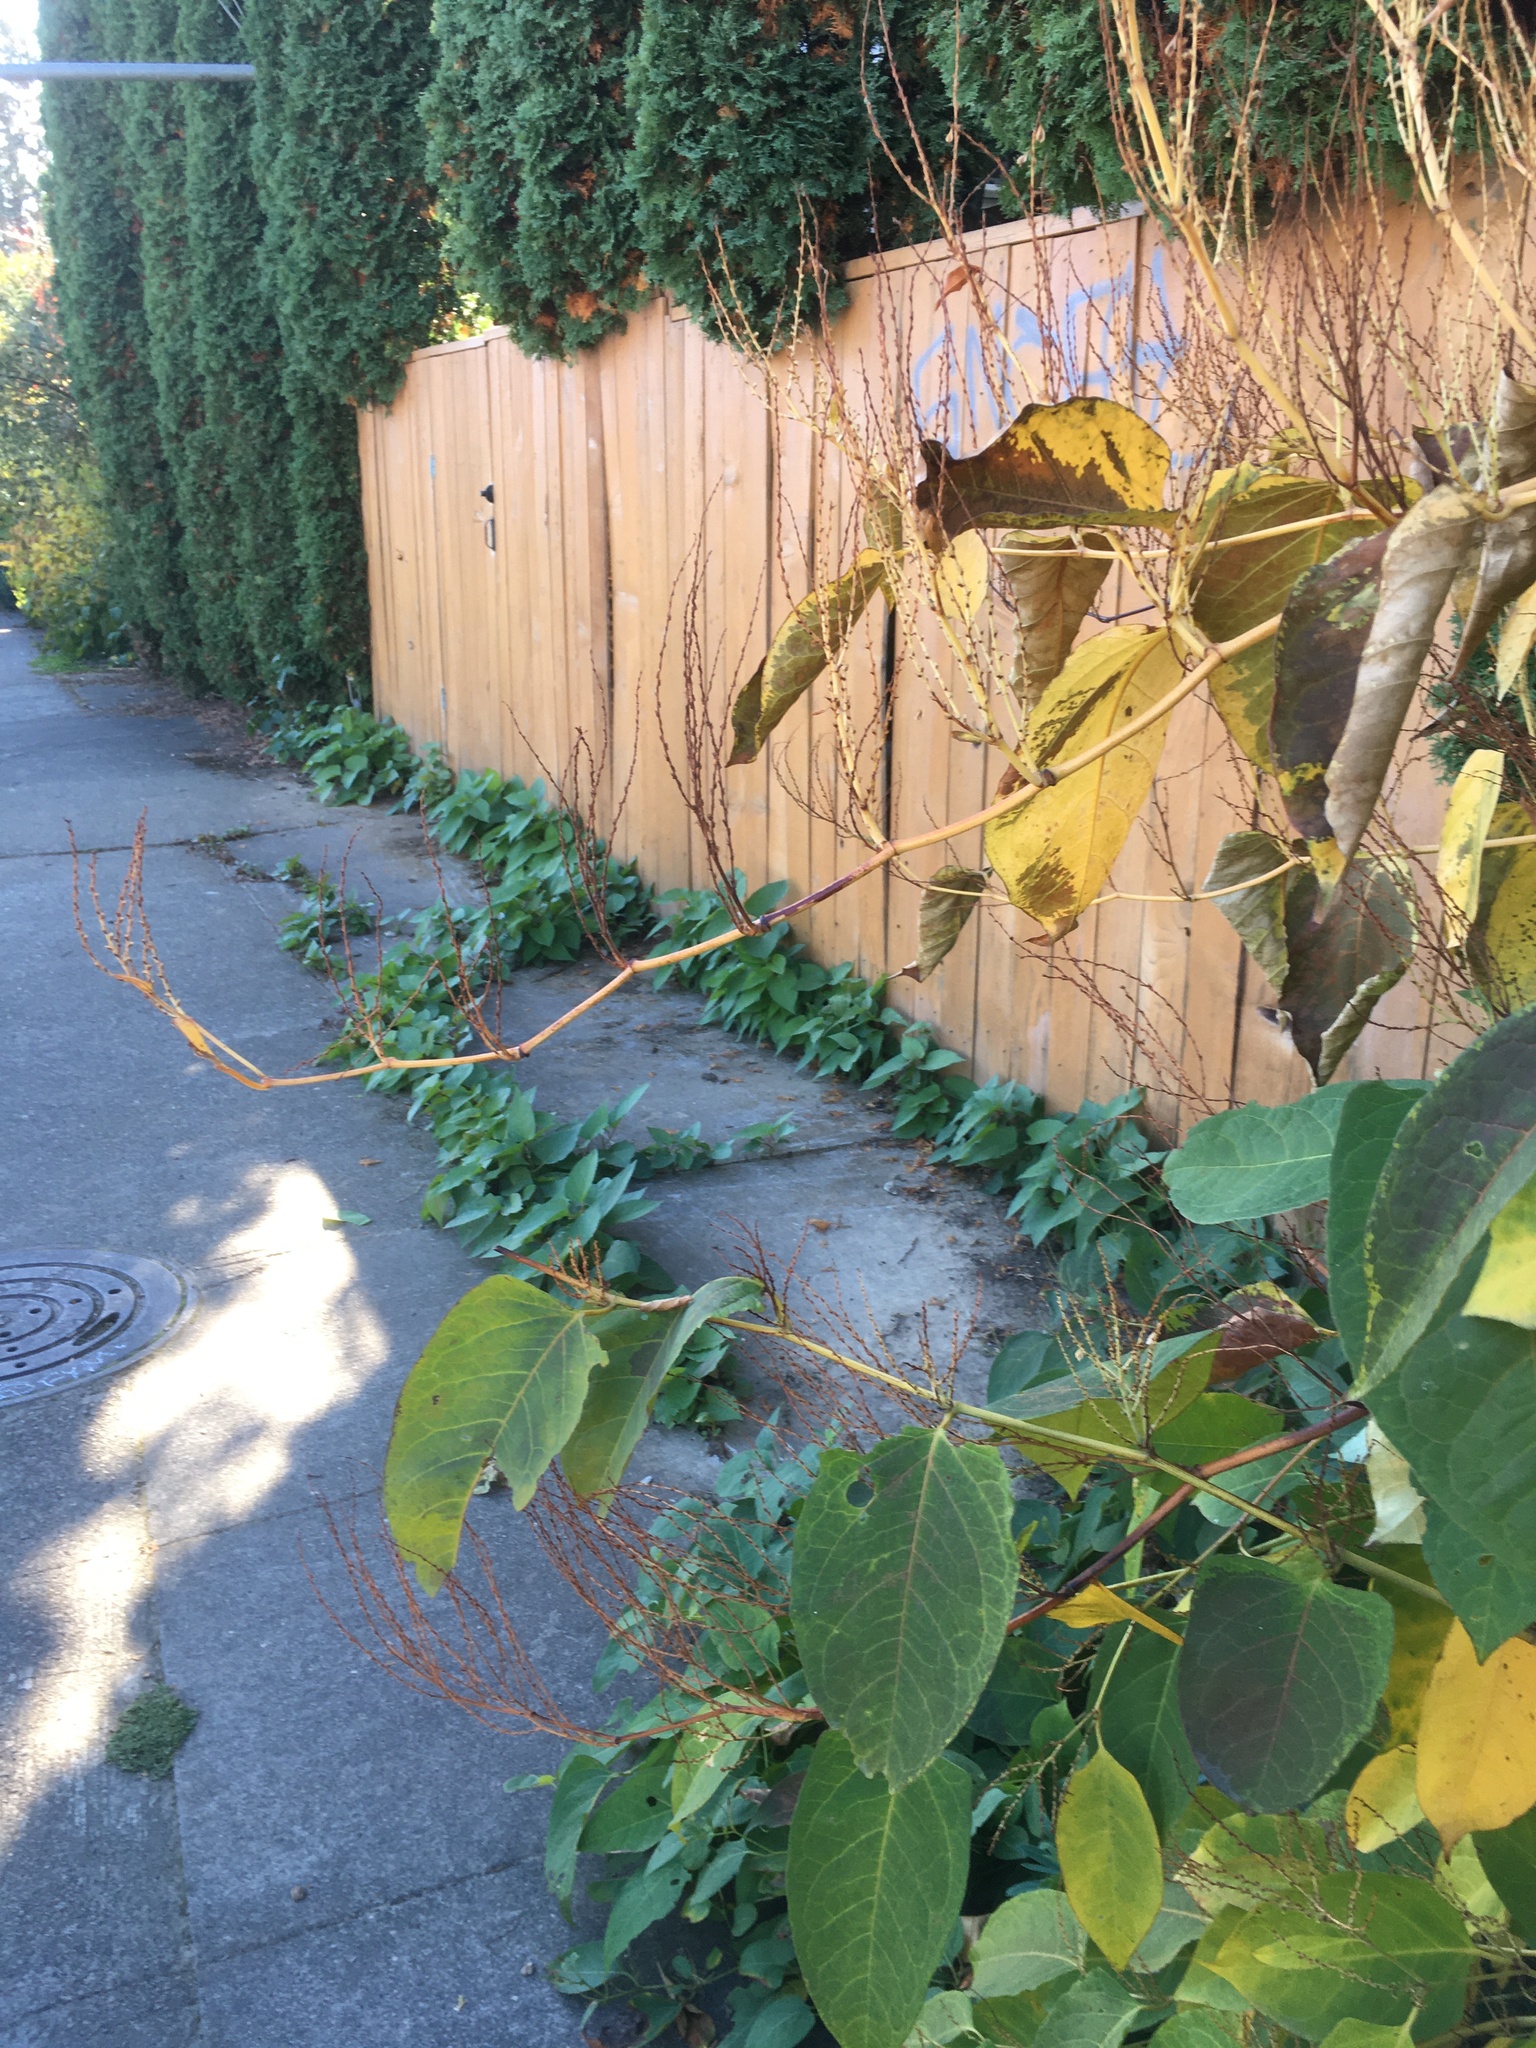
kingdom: Plantae
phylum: Tracheophyta
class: Magnoliopsida
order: Caryophyllales
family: Polygonaceae
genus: Reynoutria
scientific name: Reynoutria japonica
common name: Japanese knotweed
